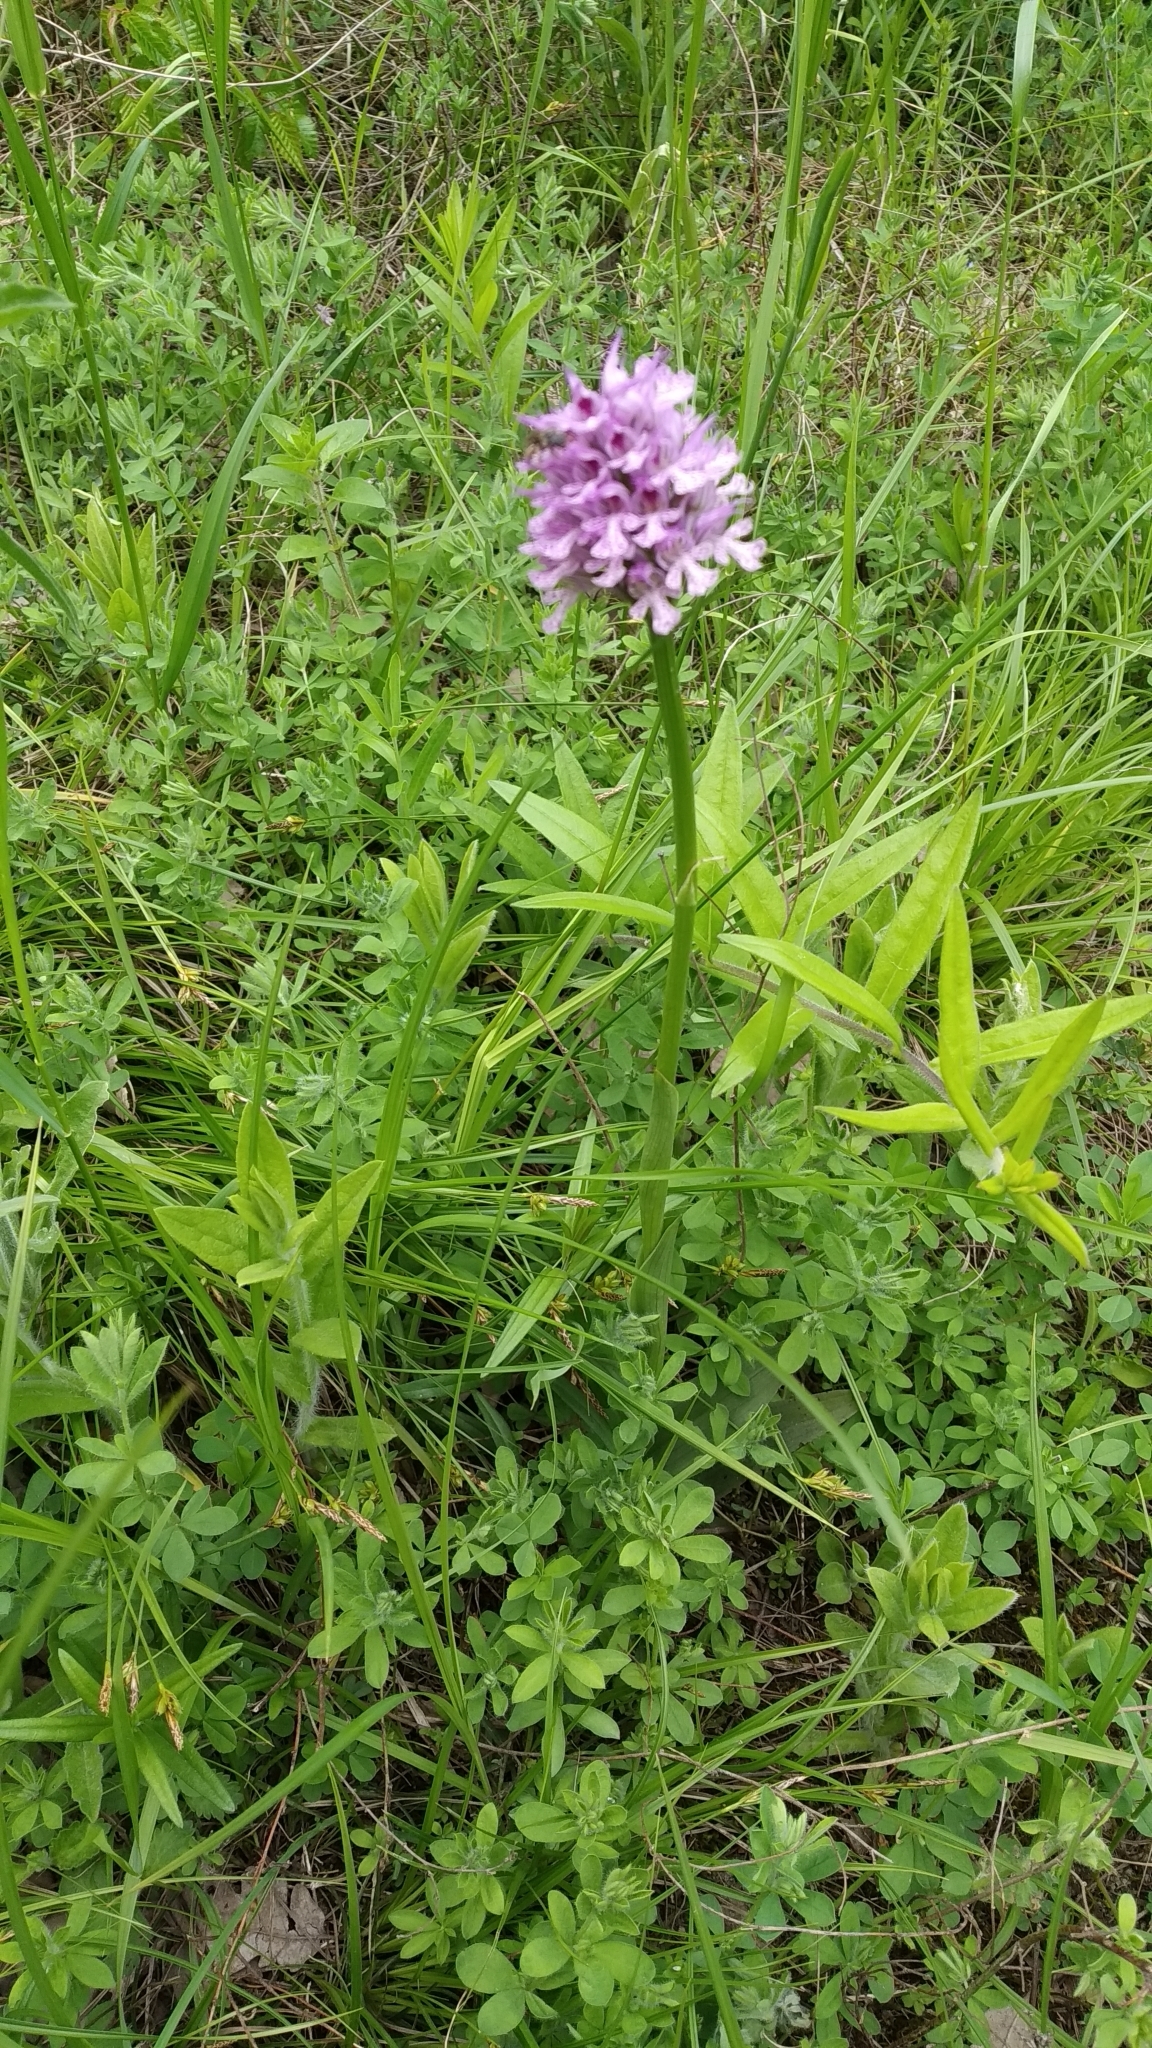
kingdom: Plantae
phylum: Tracheophyta
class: Liliopsida
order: Asparagales
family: Orchidaceae
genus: Neotinea
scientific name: Neotinea tridentata
